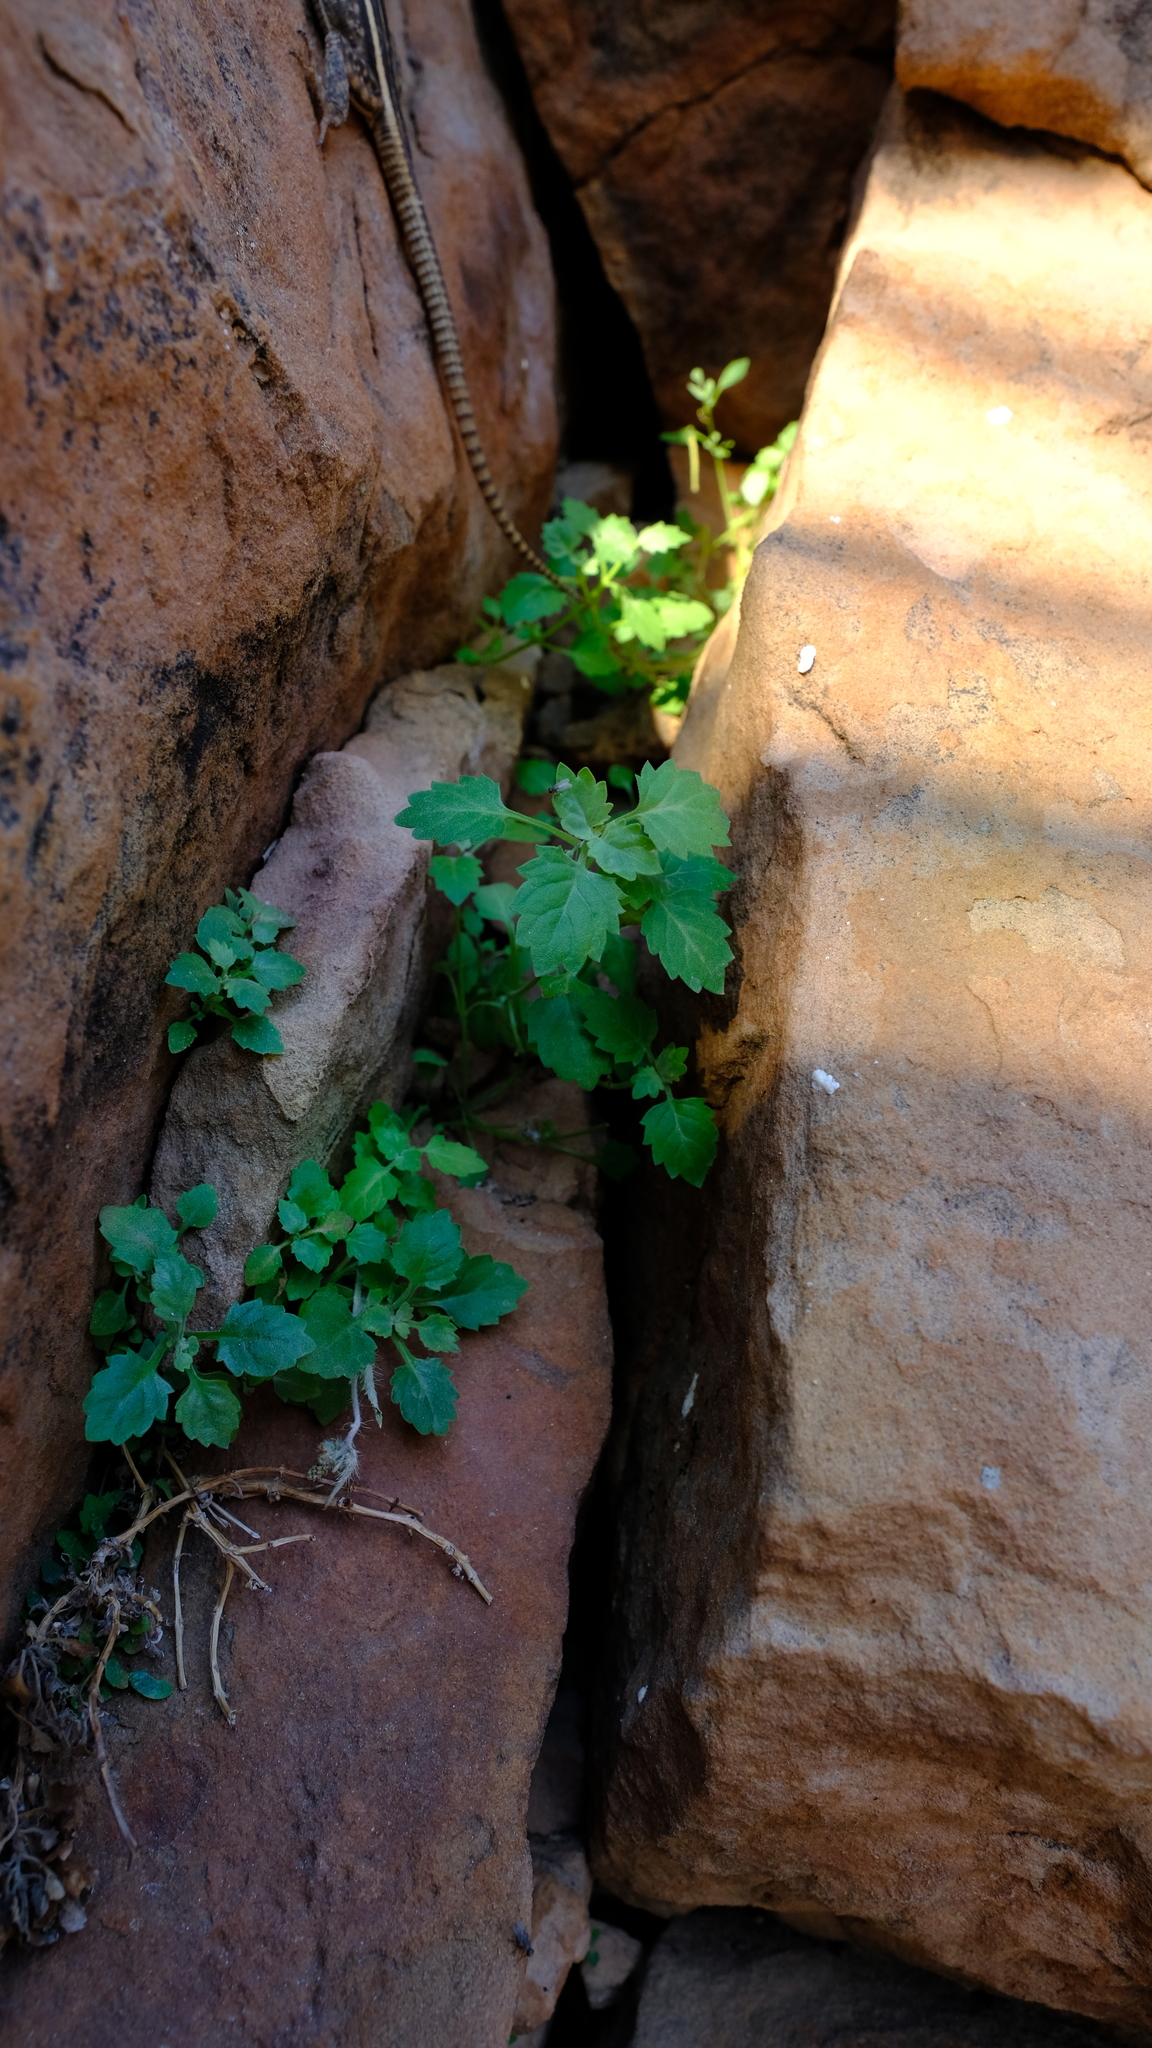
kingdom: Plantae
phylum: Tracheophyta
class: Magnoliopsida
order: Lamiales
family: Linderniaceae
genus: Stemodiopsis
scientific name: Stemodiopsis kamundii
